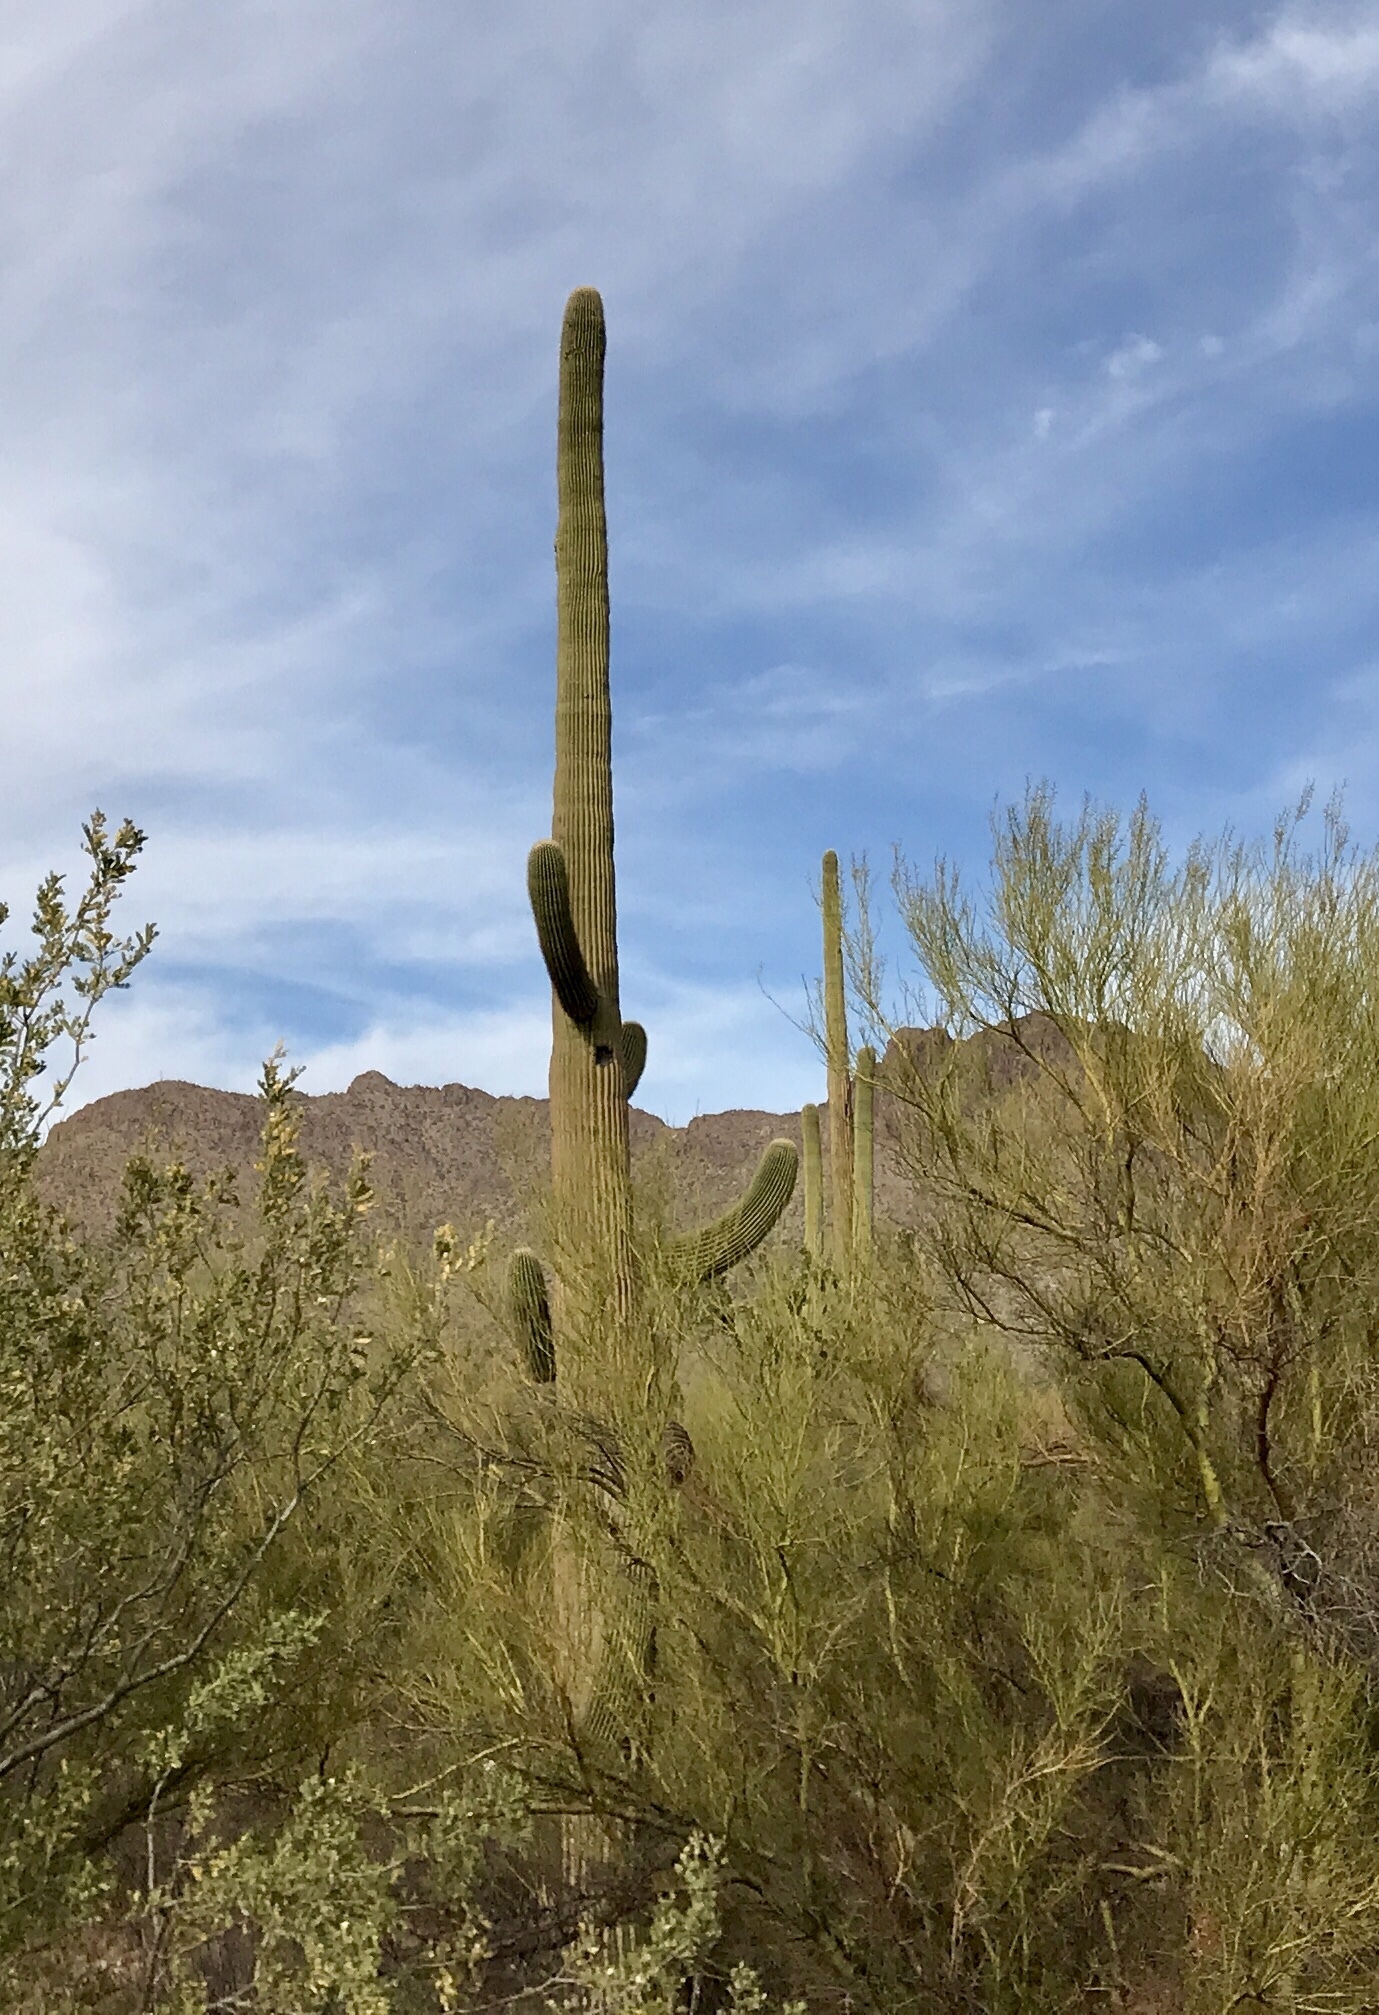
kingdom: Plantae
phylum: Tracheophyta
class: Magnoliopsida
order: Caryophyllales
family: Cactaceae
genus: Carnegiea
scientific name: Carnegiea gigantea
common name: Saguaro
